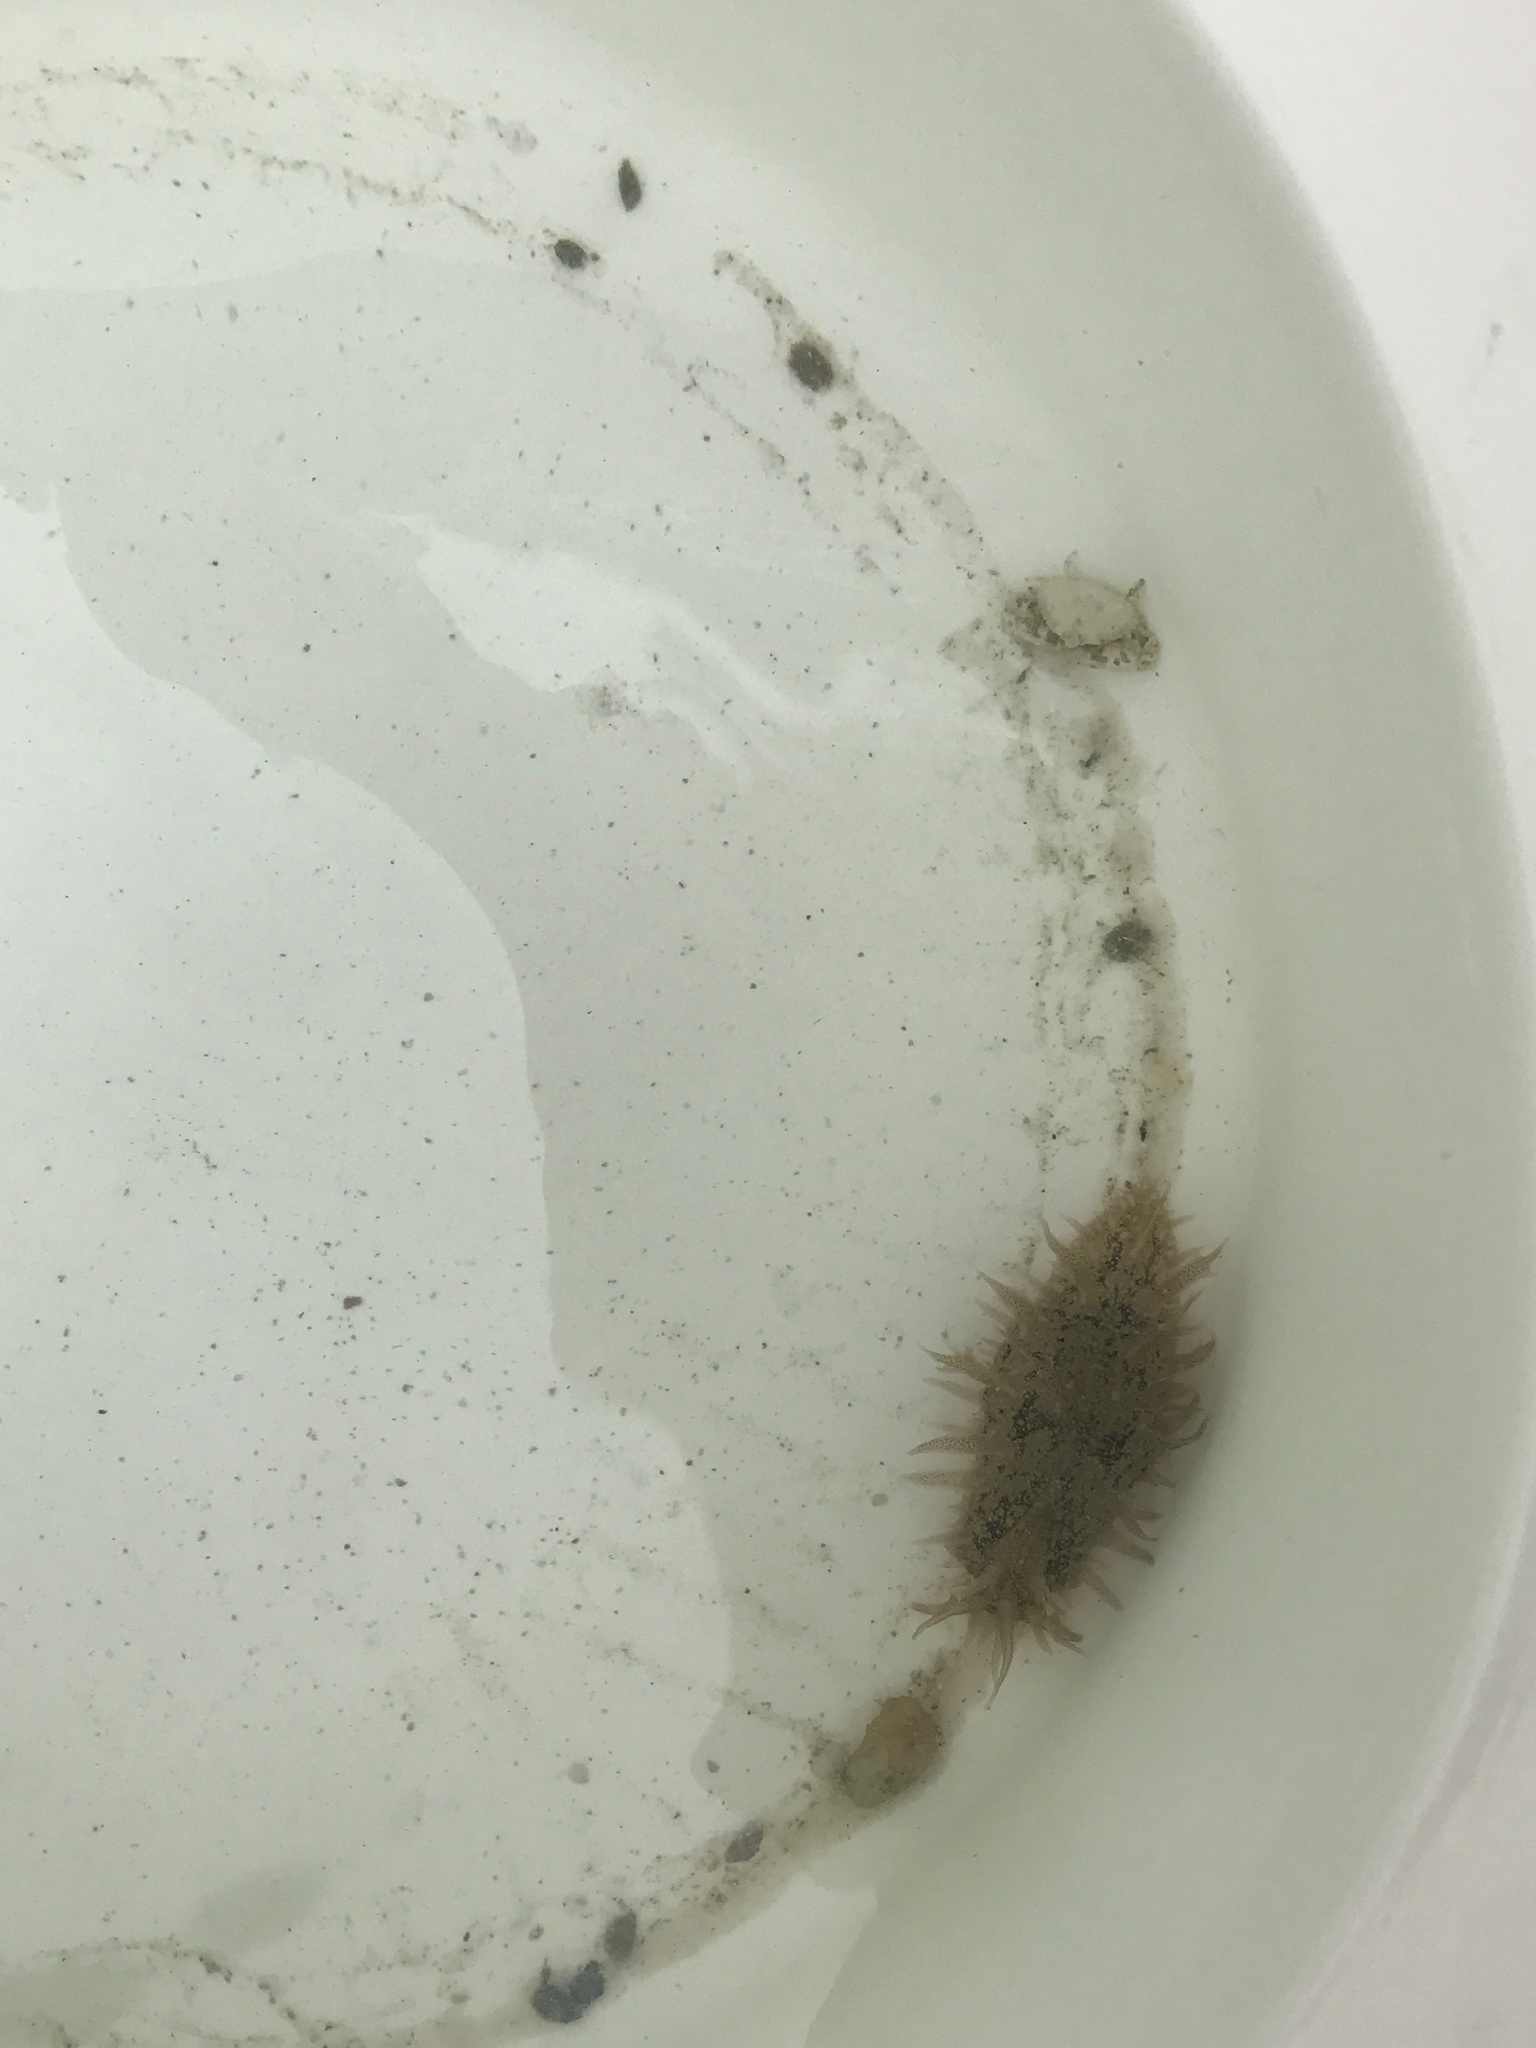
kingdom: Animalia
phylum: Mollusca
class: Gastropoda
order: Aplysiida
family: Aplysiidae
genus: Bursatella
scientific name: Bursatella leachii
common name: Shaggy sea hare
